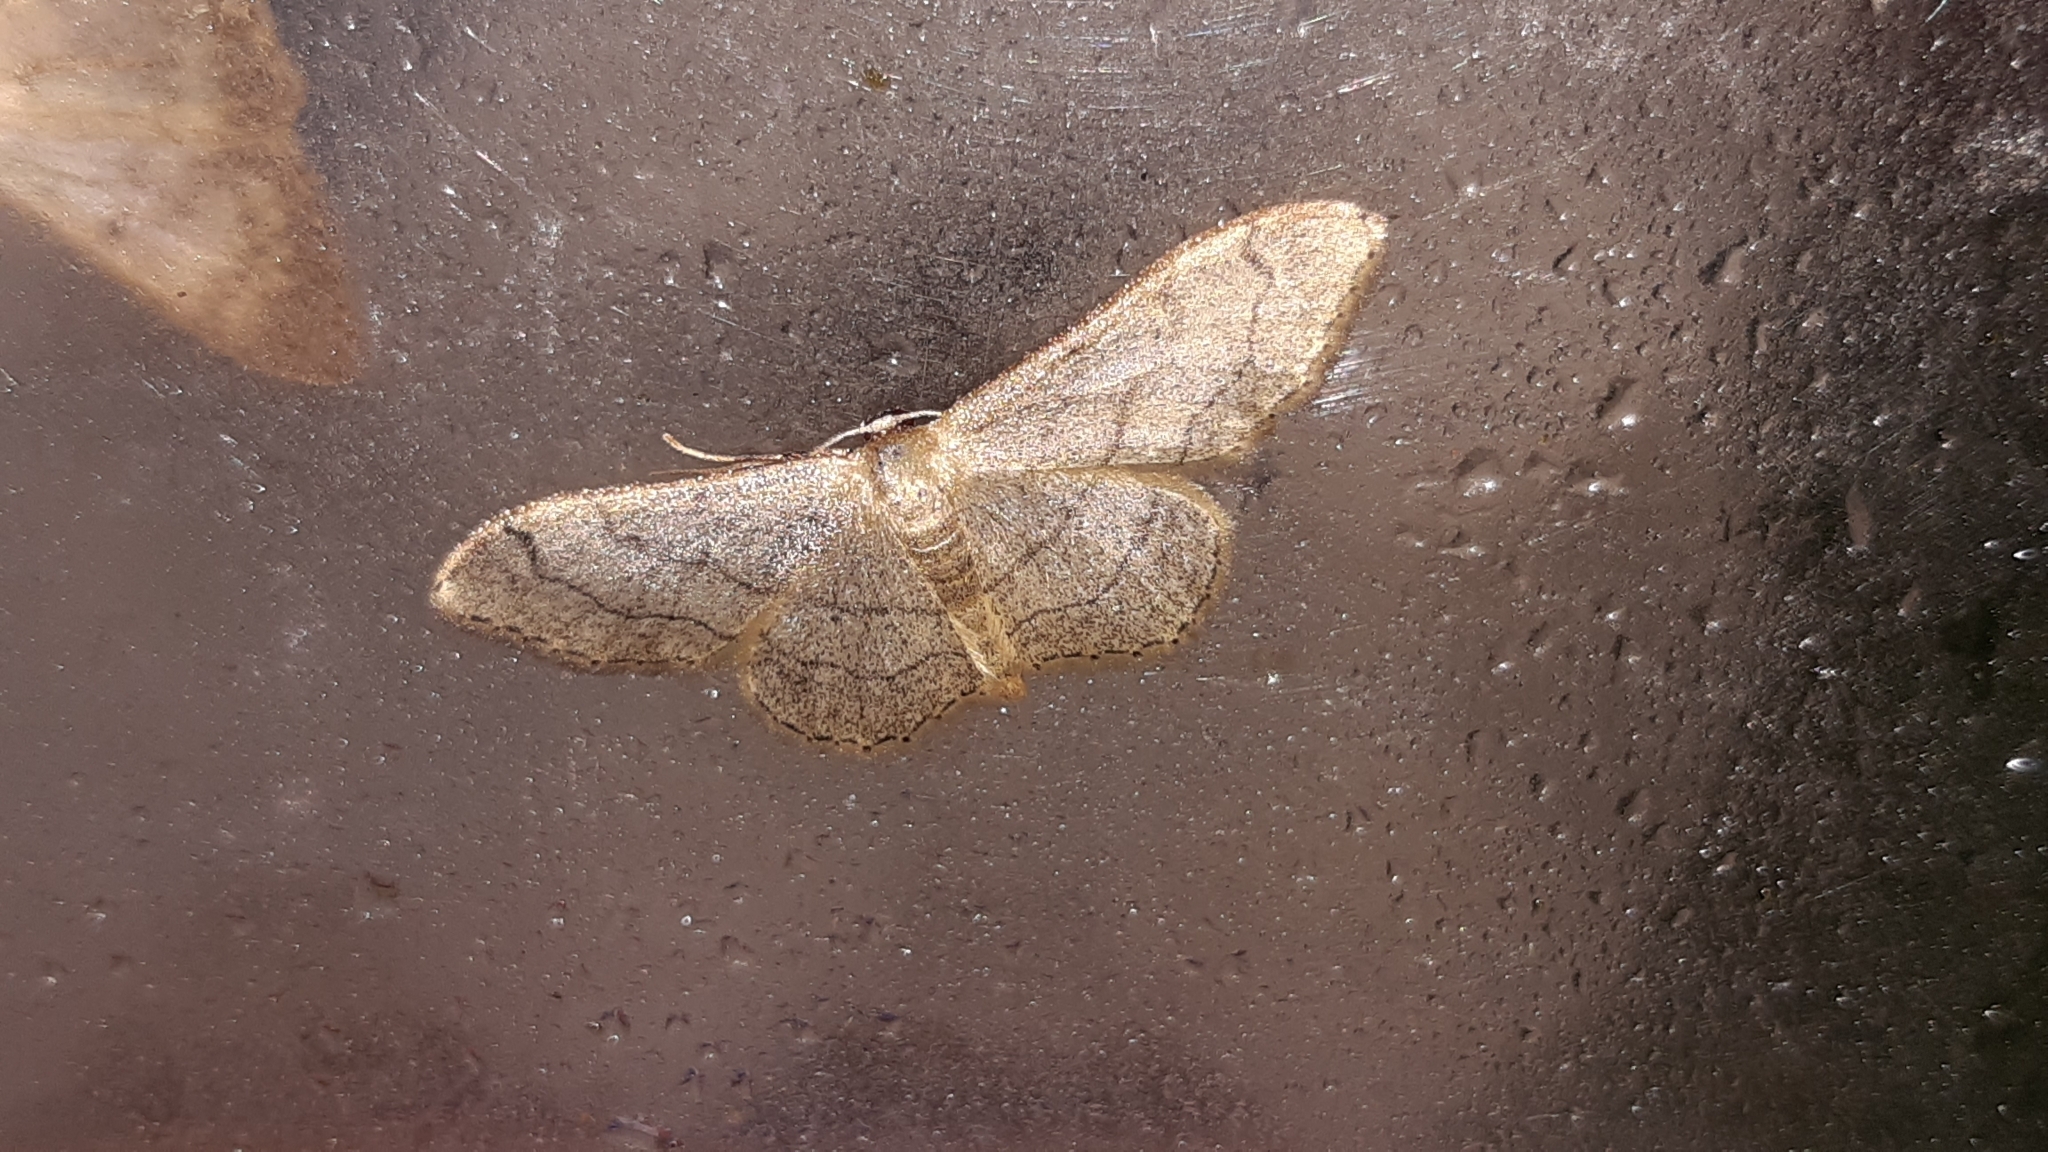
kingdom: Animalia
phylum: Arthropoda
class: Insecta
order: Lepidoptera
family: Geometridae
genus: Idaea
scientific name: Idaea aversata
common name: Riband wave
